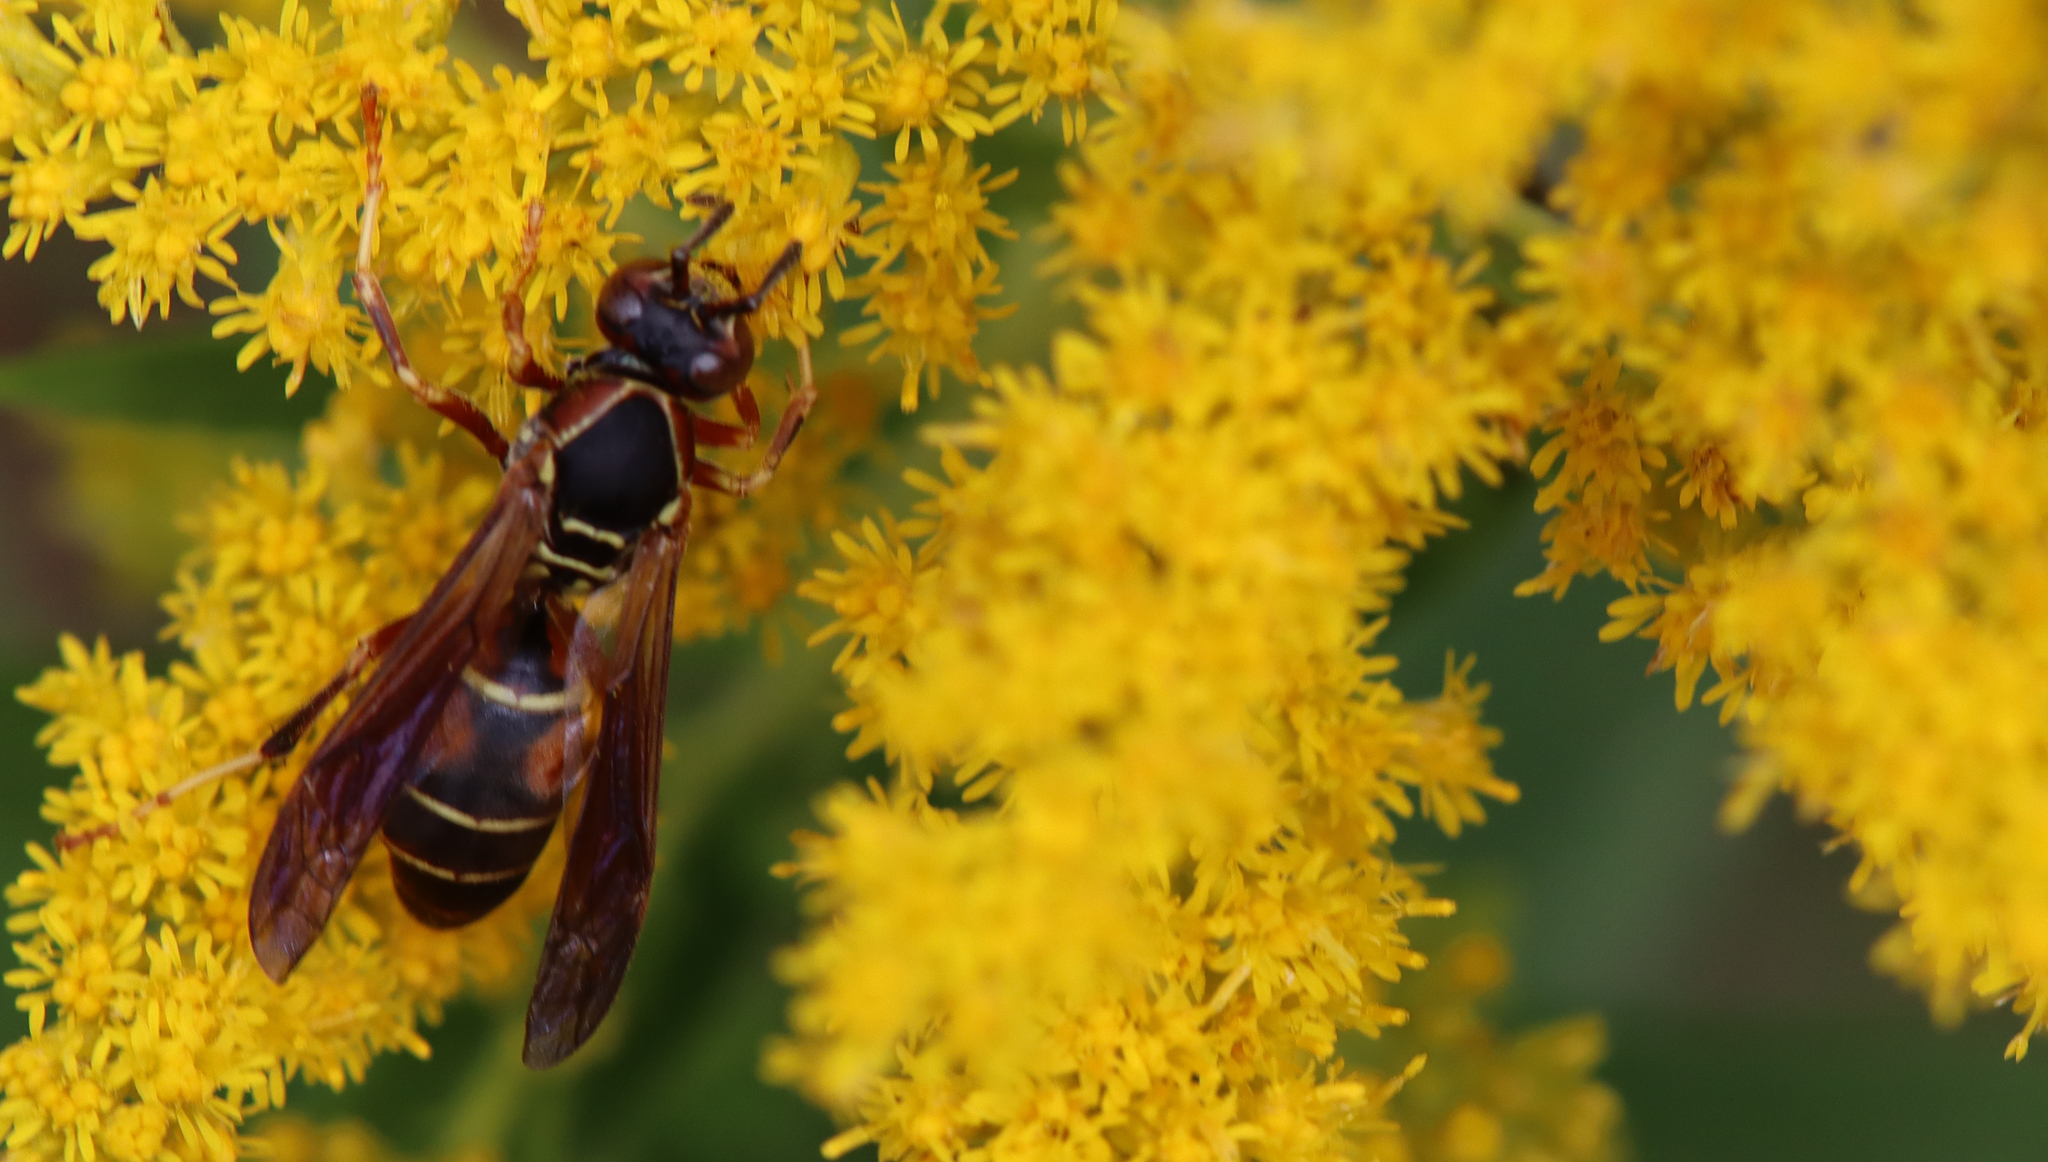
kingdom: Animalia
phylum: Arthropoda
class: Insecta
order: Hymenoptera
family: Eumenidae
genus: Polistes
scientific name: Polistes fuscatus
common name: Dark paper wasp
